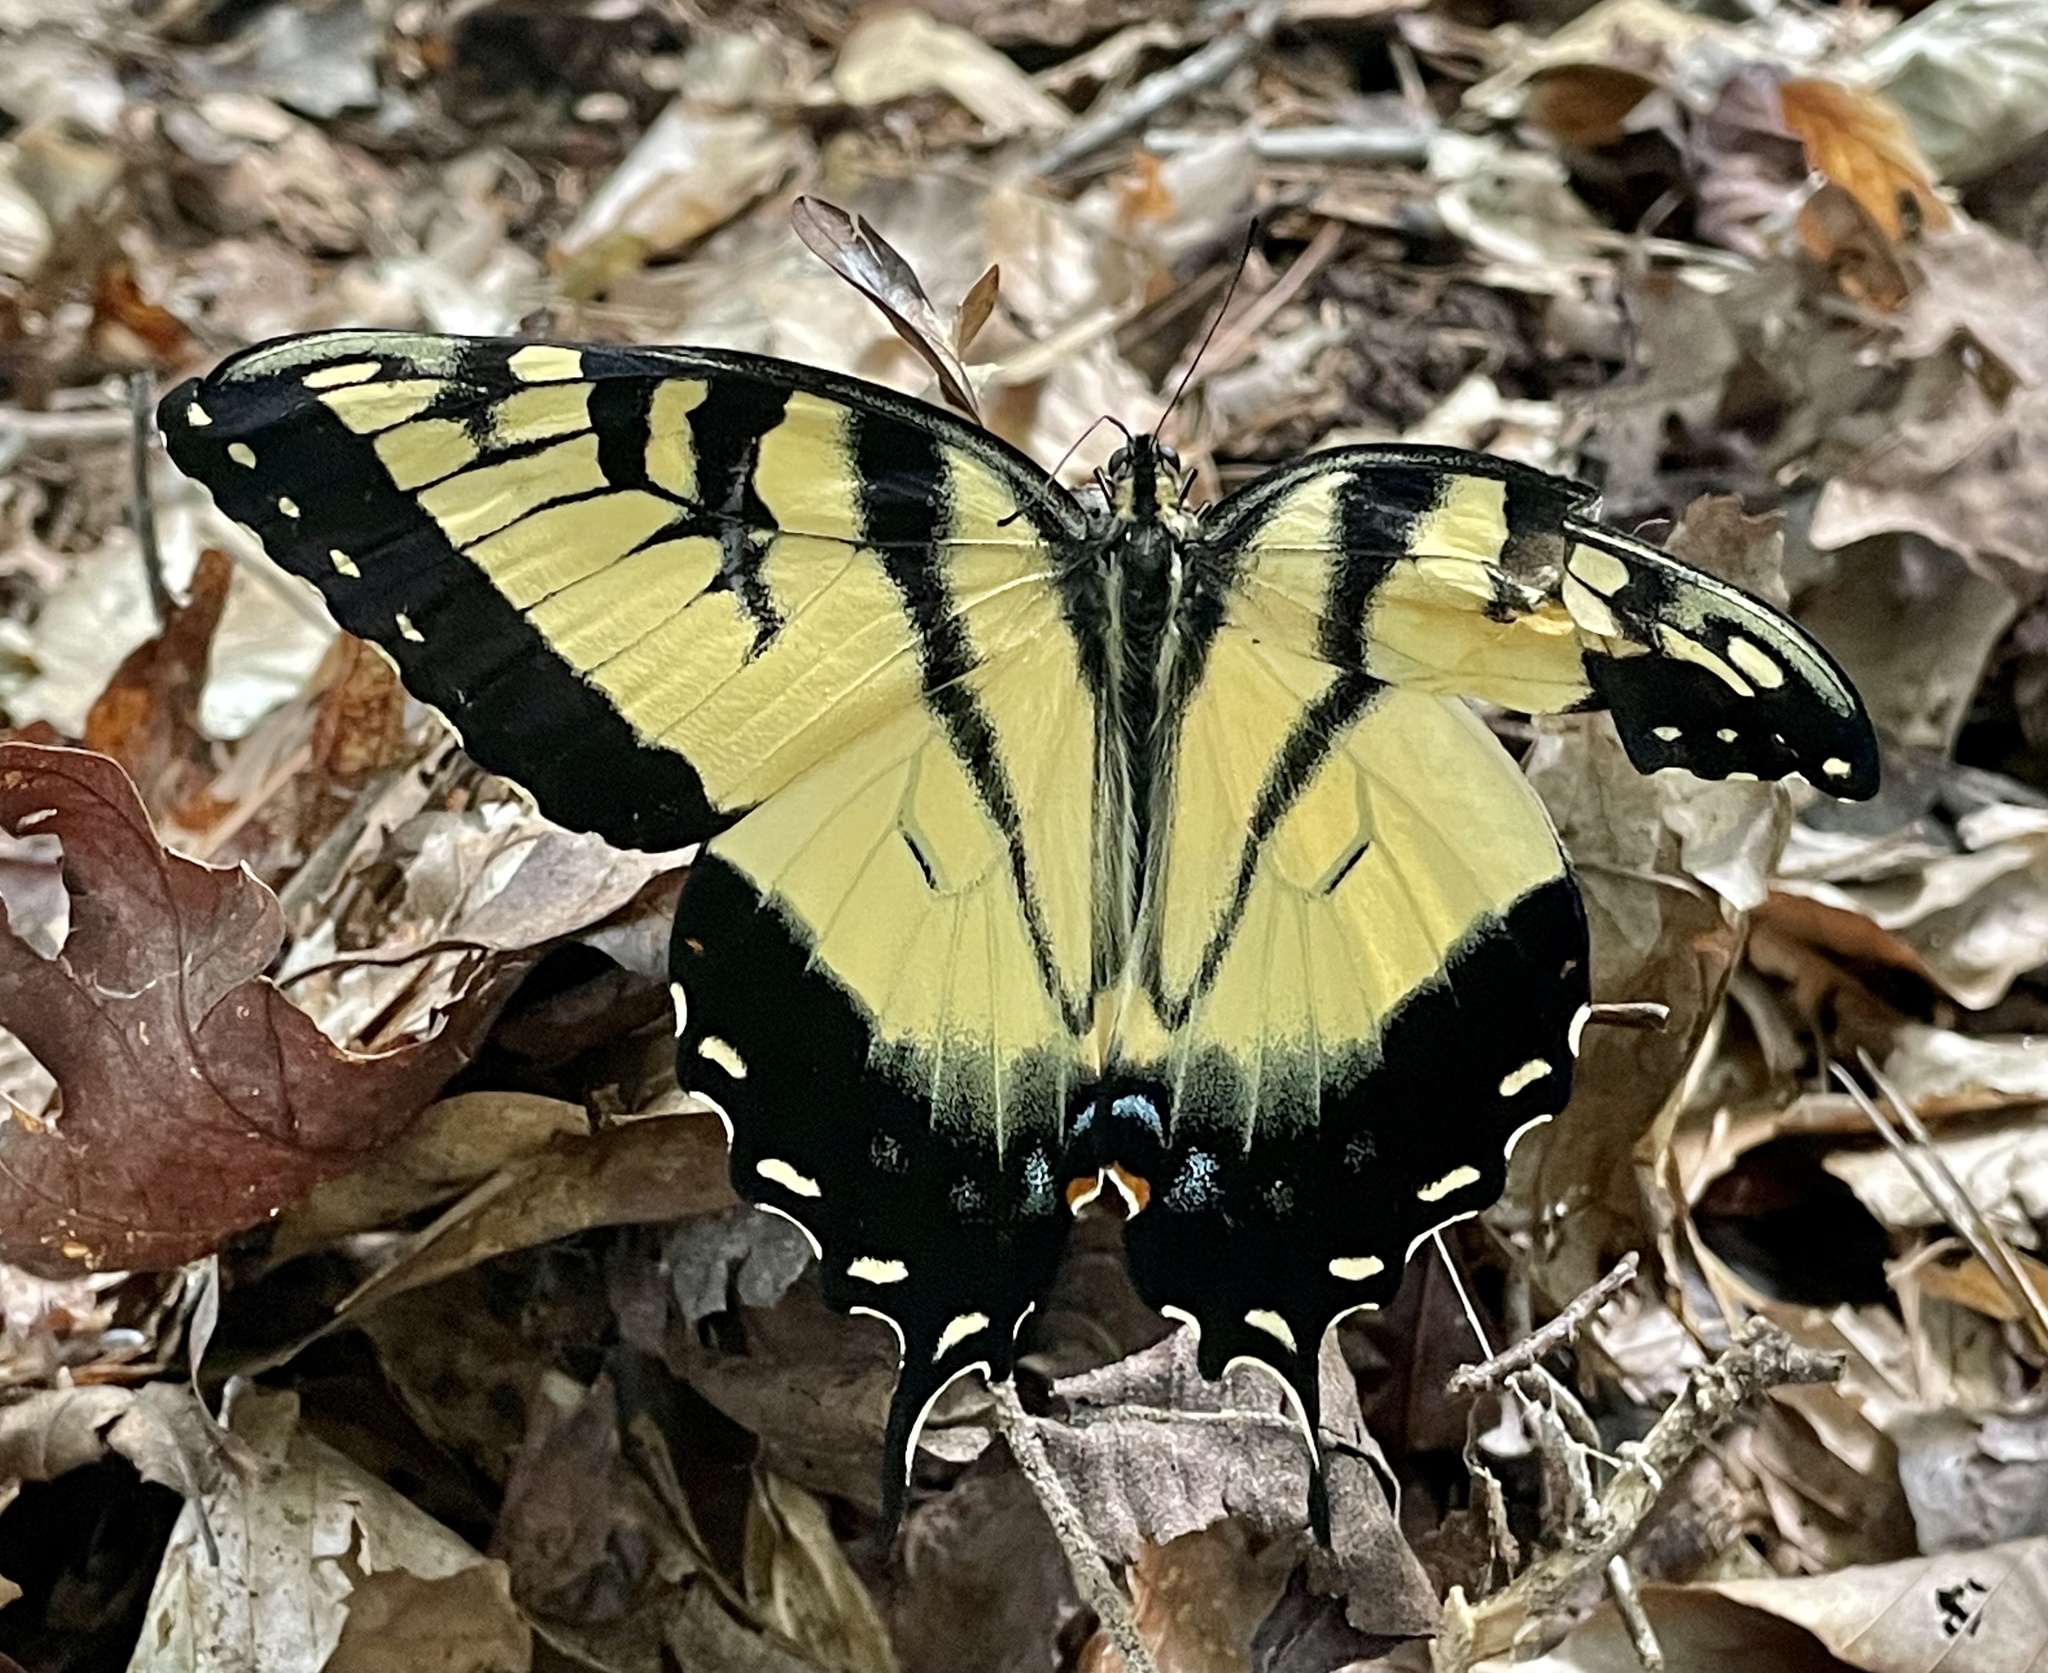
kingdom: Animalia
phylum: Arthropoda
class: Insecta
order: Lepidoptera
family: Papilionidae
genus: Papilio
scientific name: Papilio glaucus
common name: Tiger swallowtail
